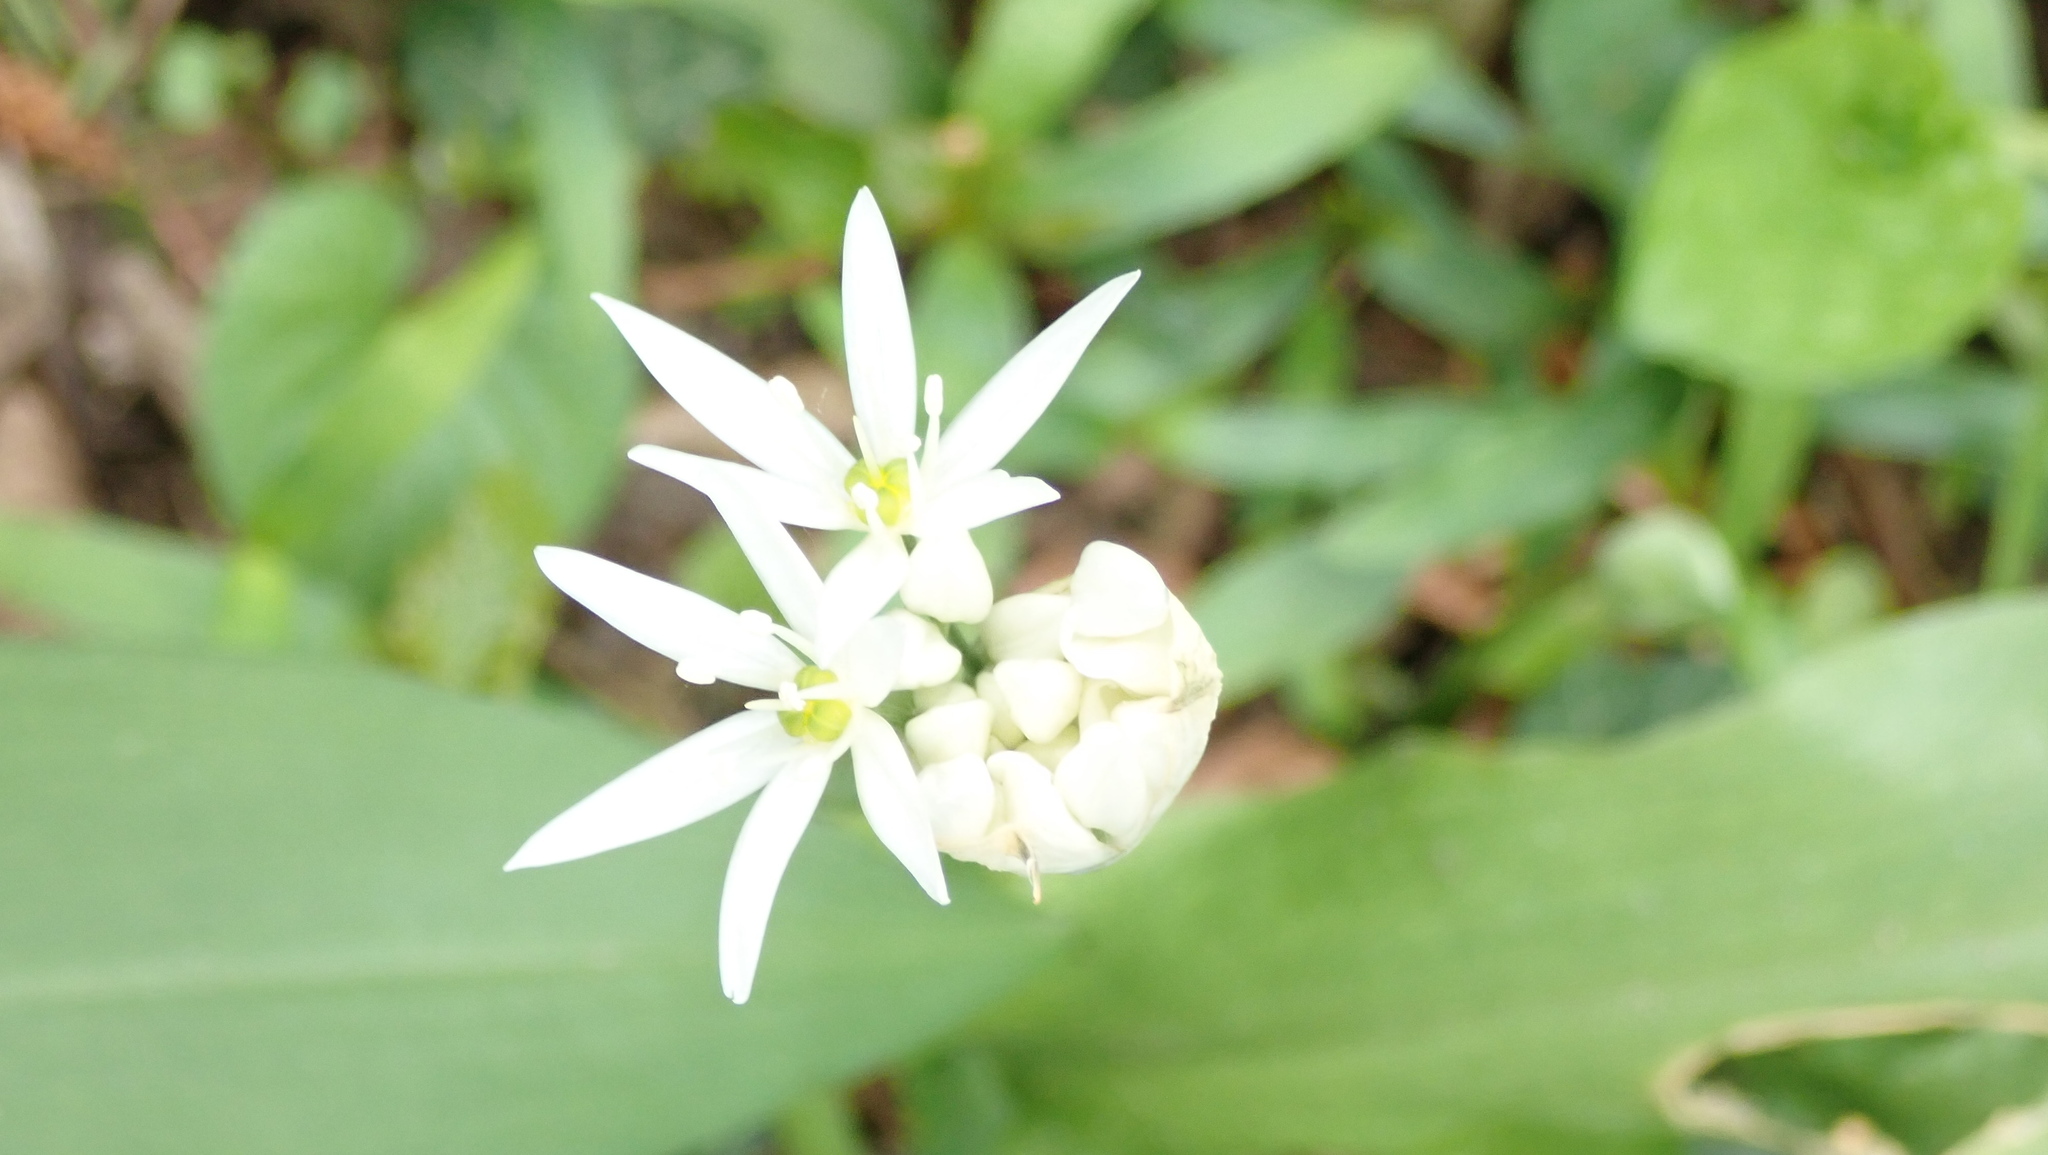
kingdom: Plantae
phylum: Tracheophyta
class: Liliopsida
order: Asparagales
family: Amaryllidaceae
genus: Allium
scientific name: Allium ursinum
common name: Ramsons
